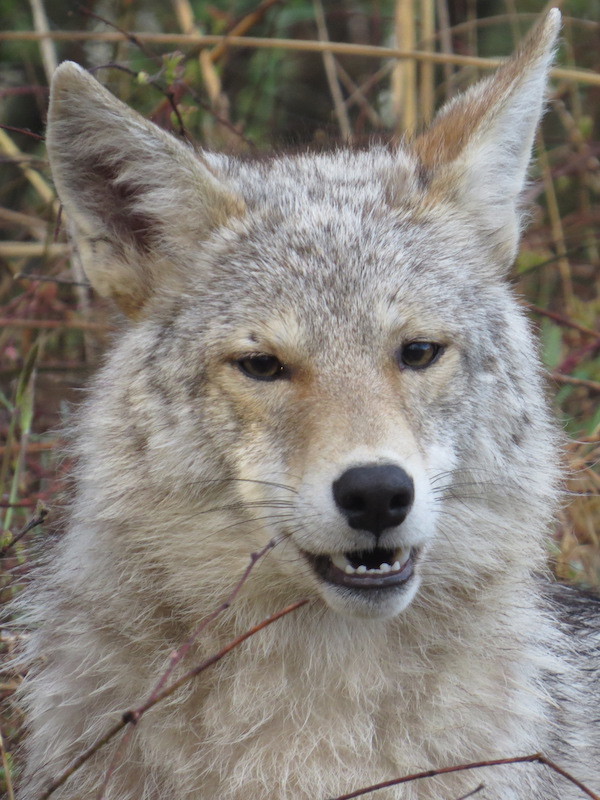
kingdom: Animalia
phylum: Chordata
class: Mammalia
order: Carnivora
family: Canidae
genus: Canis
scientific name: Canis latrans
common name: Coyote
